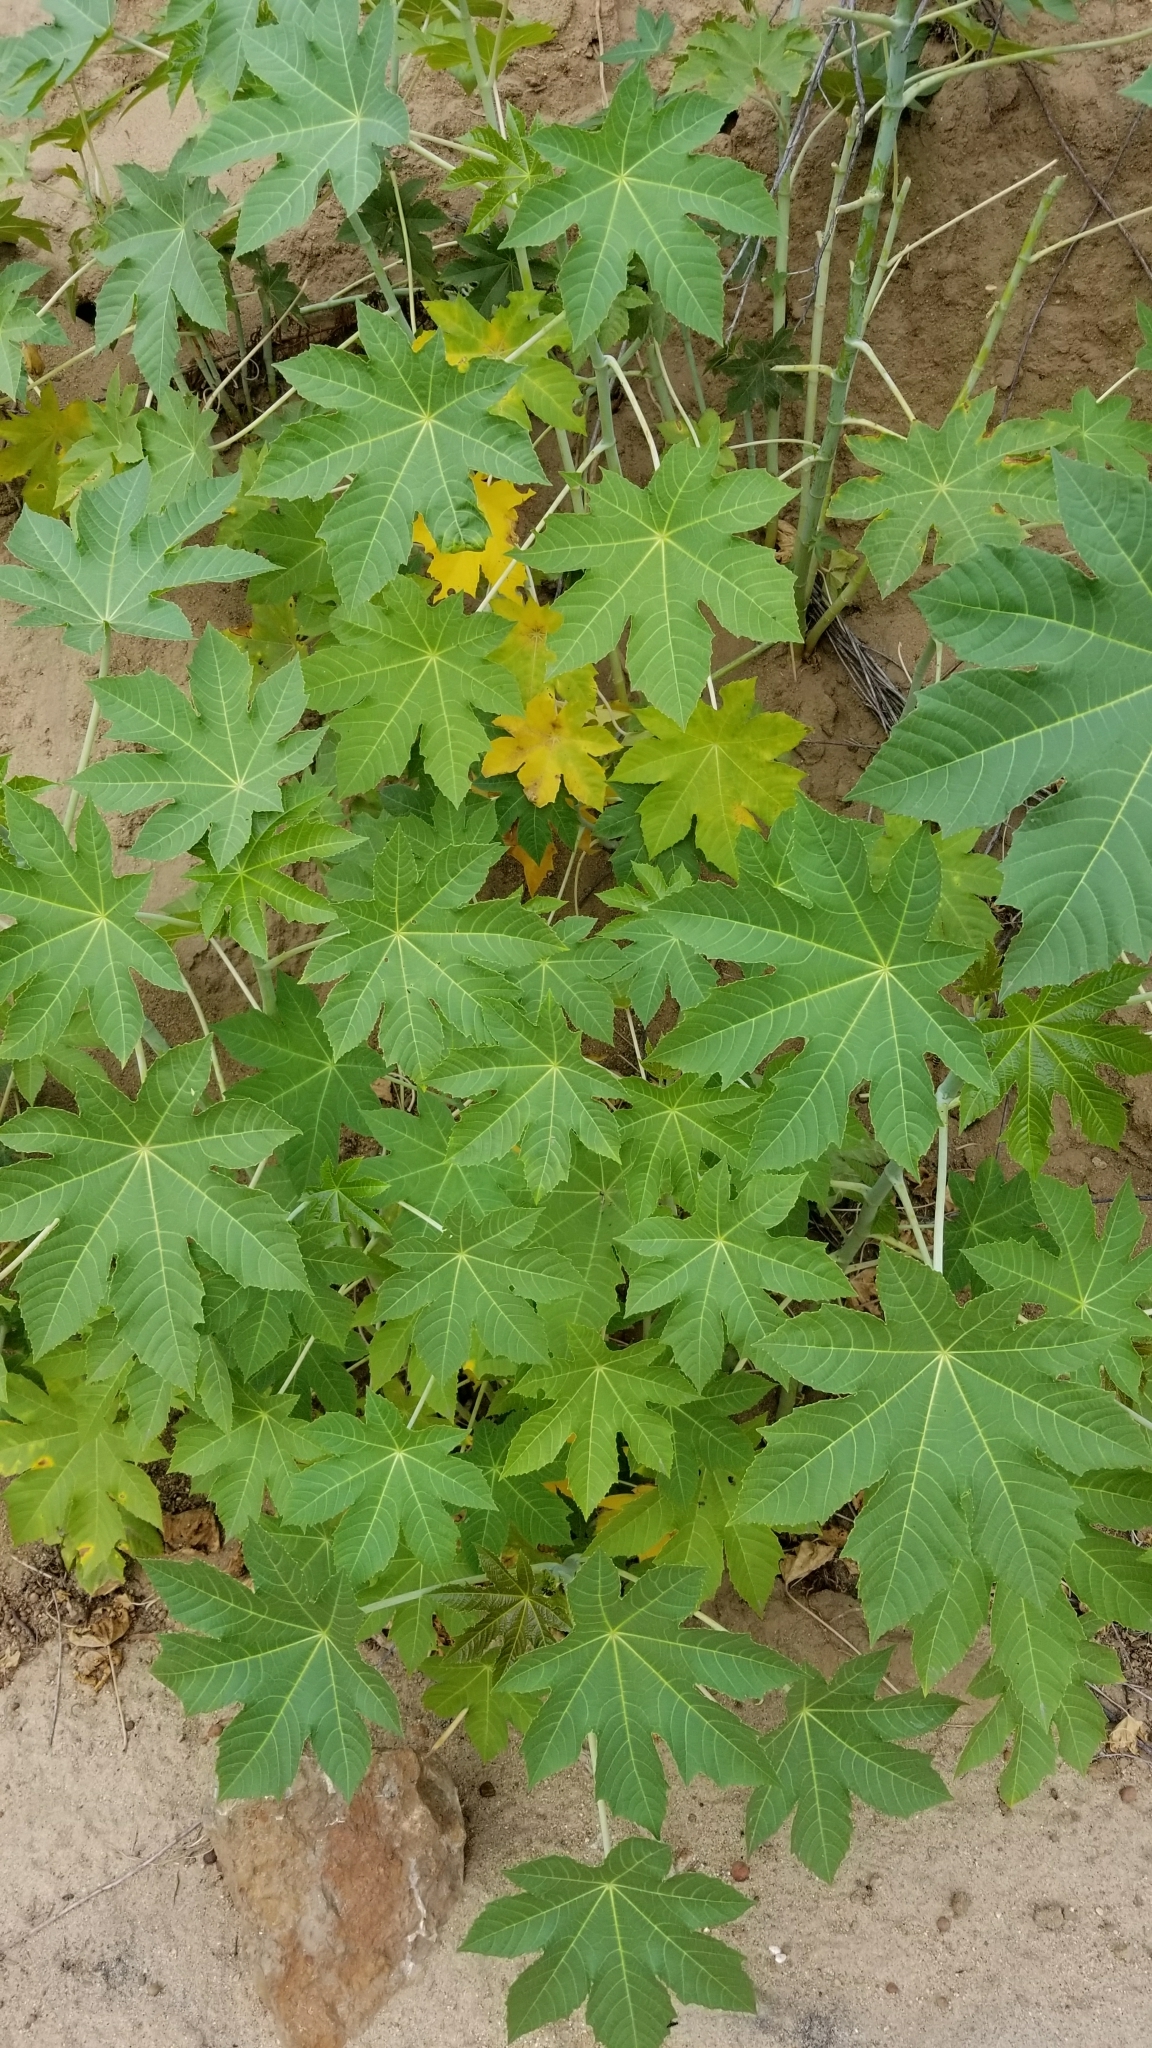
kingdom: Plantae
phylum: Tracheophyta
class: Magnoliopsida
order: Malpighiales
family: Euphorbiaceae
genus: Ricinus
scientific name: Ricinus communis
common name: Castor-oil-plant
